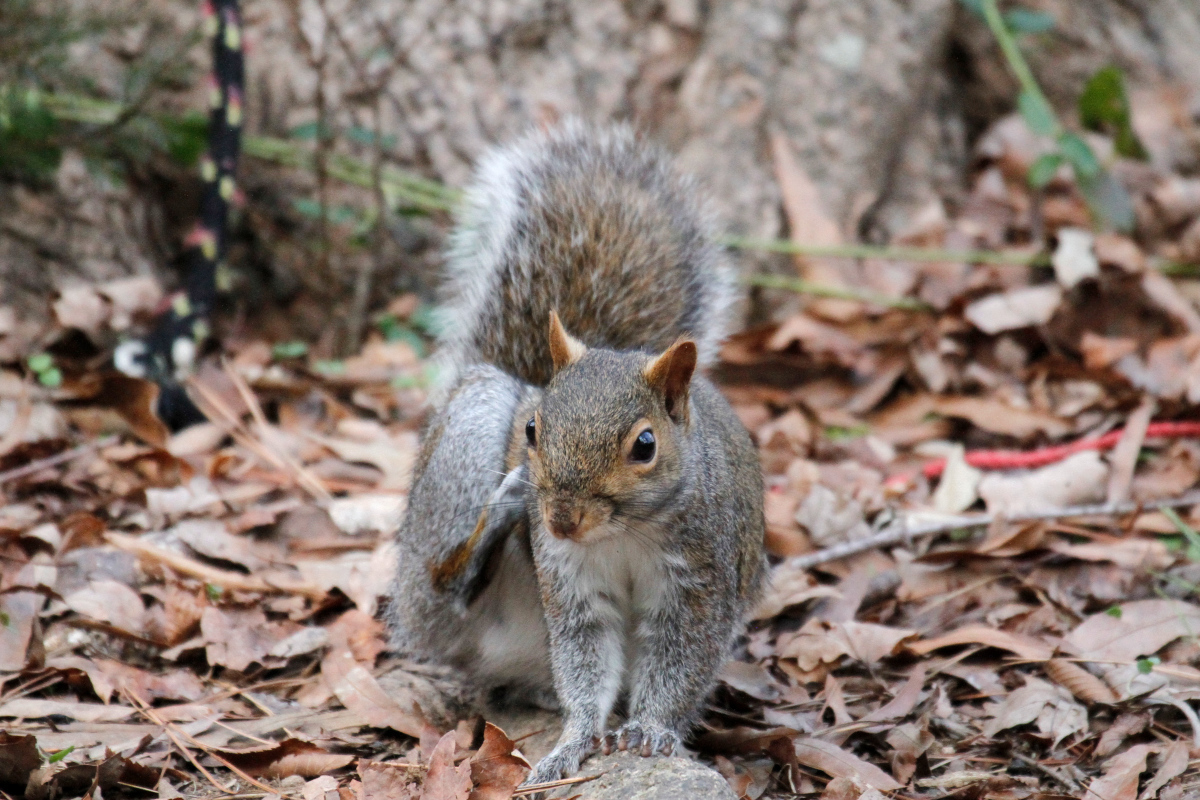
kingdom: Animalia
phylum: Chordata
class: Mammalia
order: Rodentia
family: Sciuridae
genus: Sciurus
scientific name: Sciurus carolinensis
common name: Eastern gray squirrel
